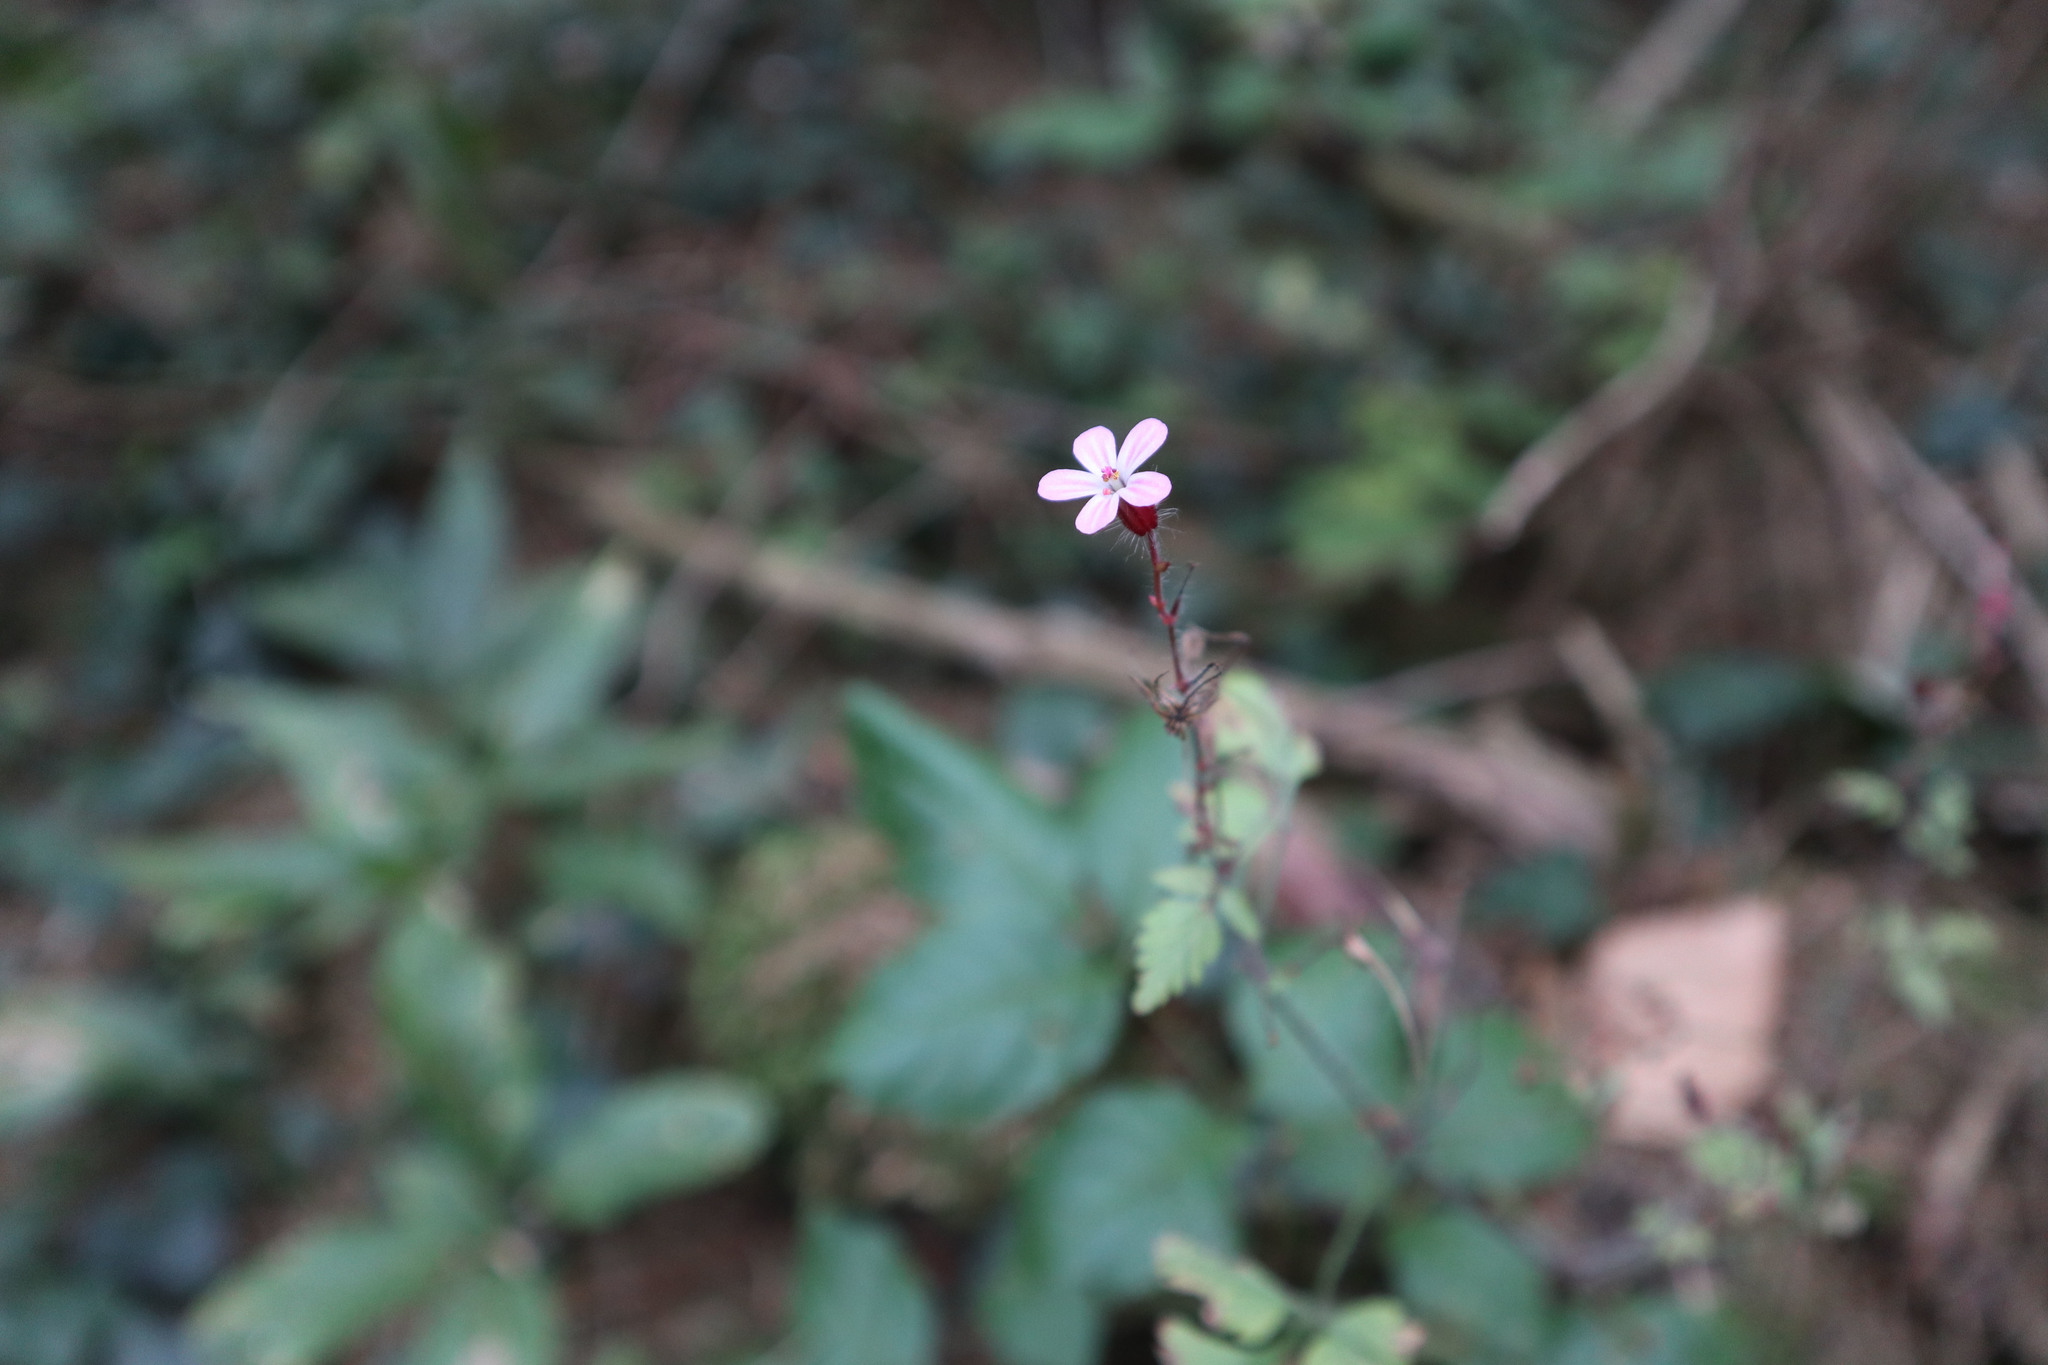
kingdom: Plantae
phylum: Tracheophyta
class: Magnoliopsida
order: Geraniales
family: Geraniaceae
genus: Geranium
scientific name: Geranium robertianum
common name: Herb-robert
